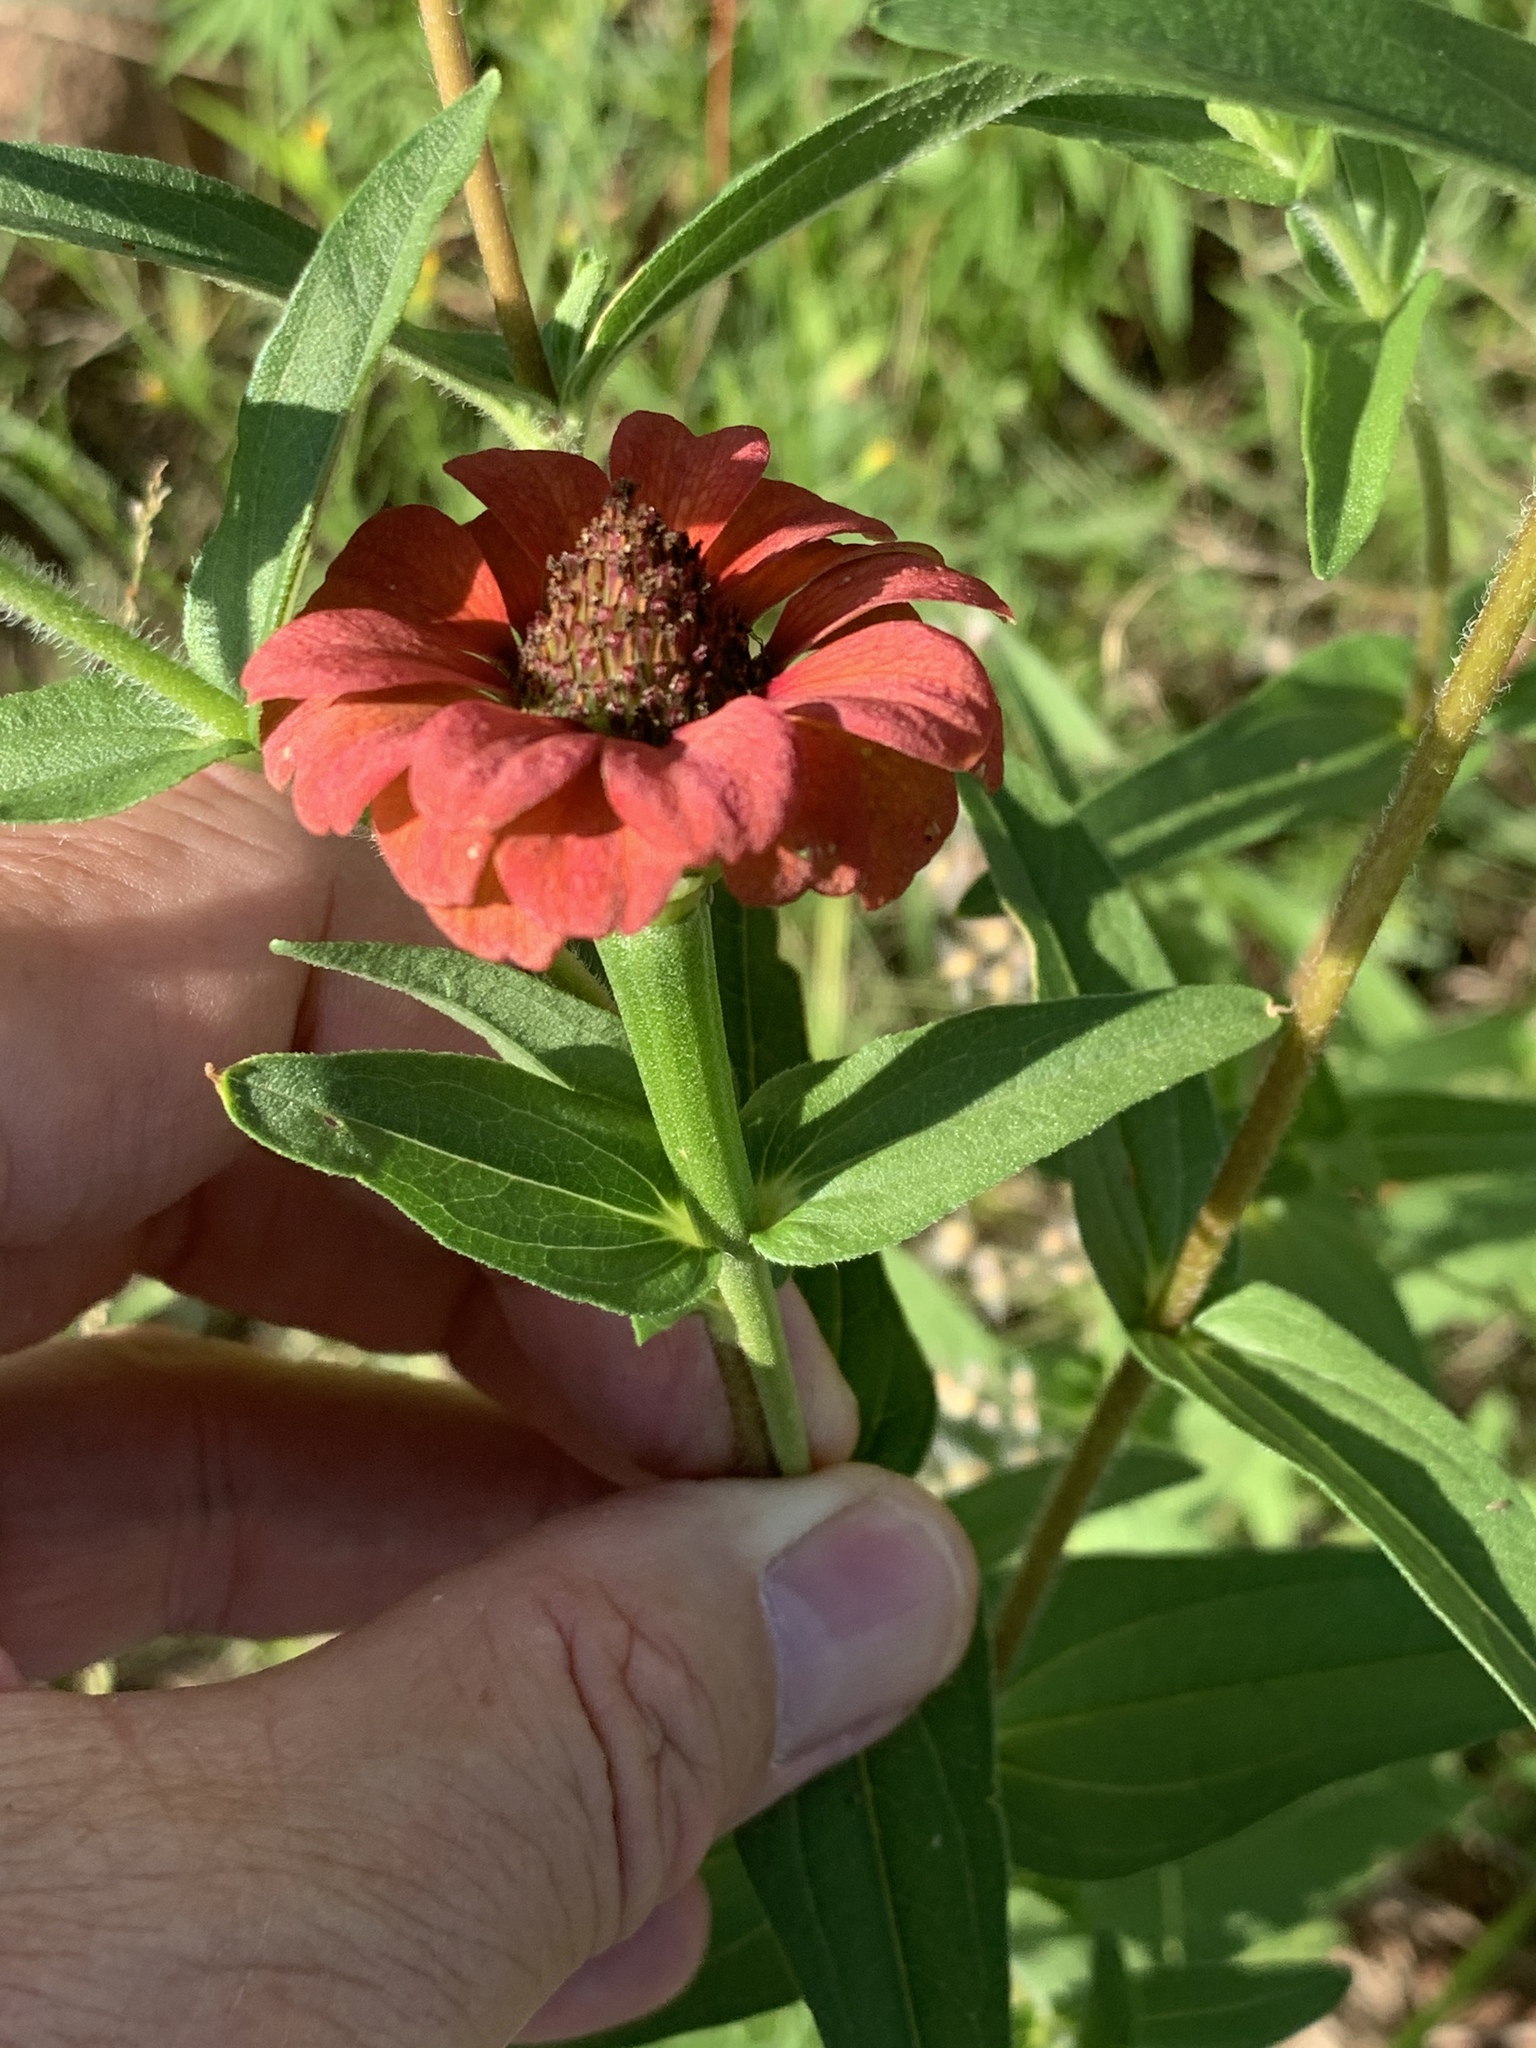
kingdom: Plantae
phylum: Tracheophyta
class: Magnoliopsida
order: Asterales
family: Asteraceae
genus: Zinnia
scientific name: Zinnia peruviana
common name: Peruvian zinnia
